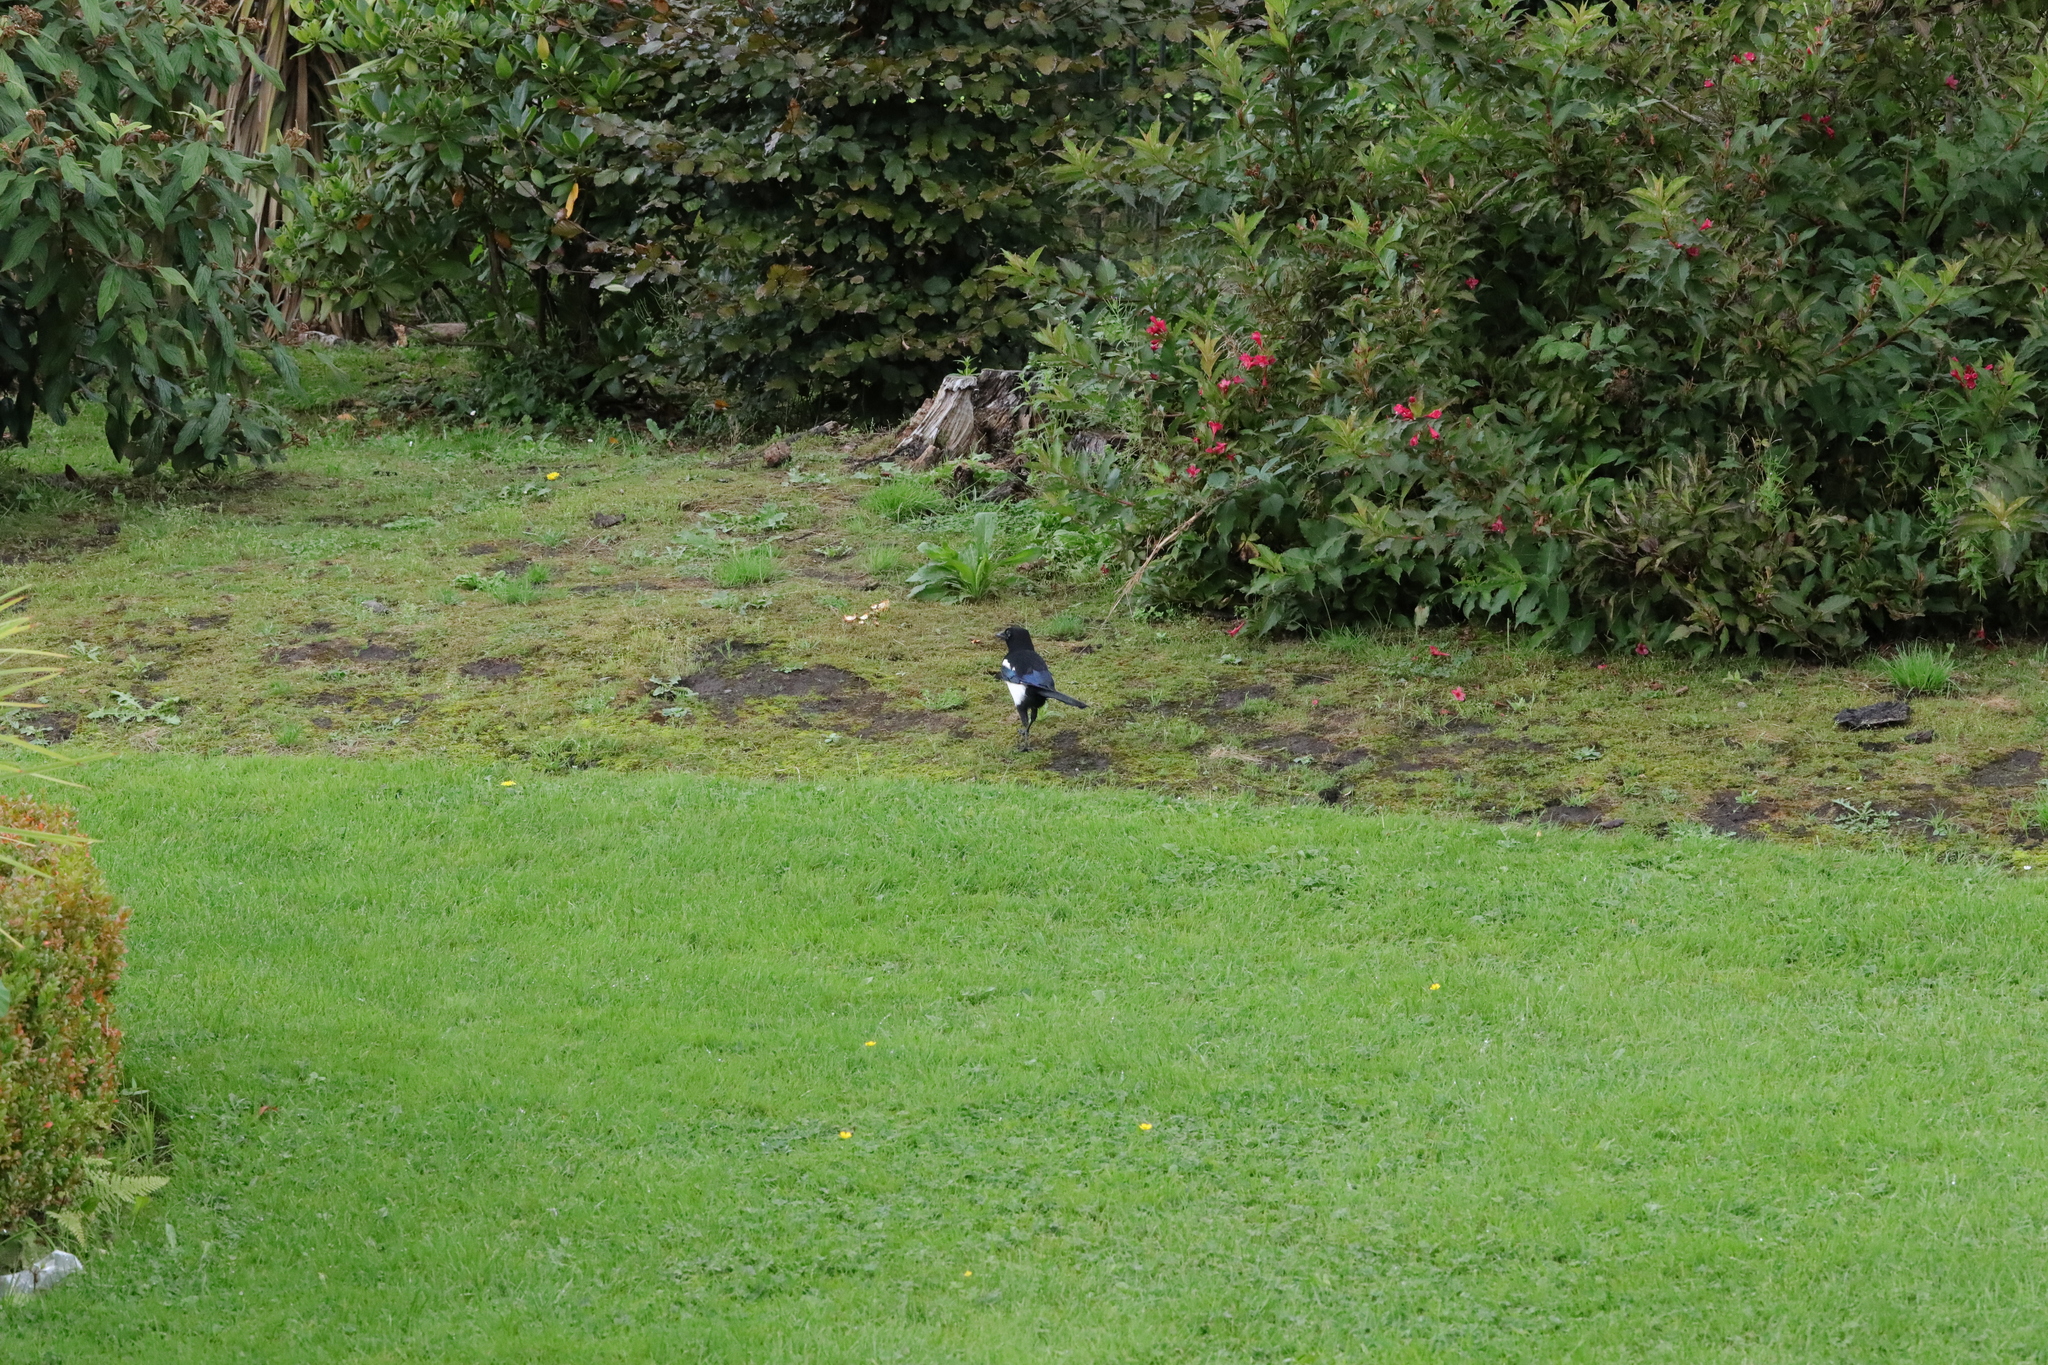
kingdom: Animalia
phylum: Chordata
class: Aves
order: Passeriformes
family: Corvidae
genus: Pica
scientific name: Pica pica
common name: Eurasian magpie
